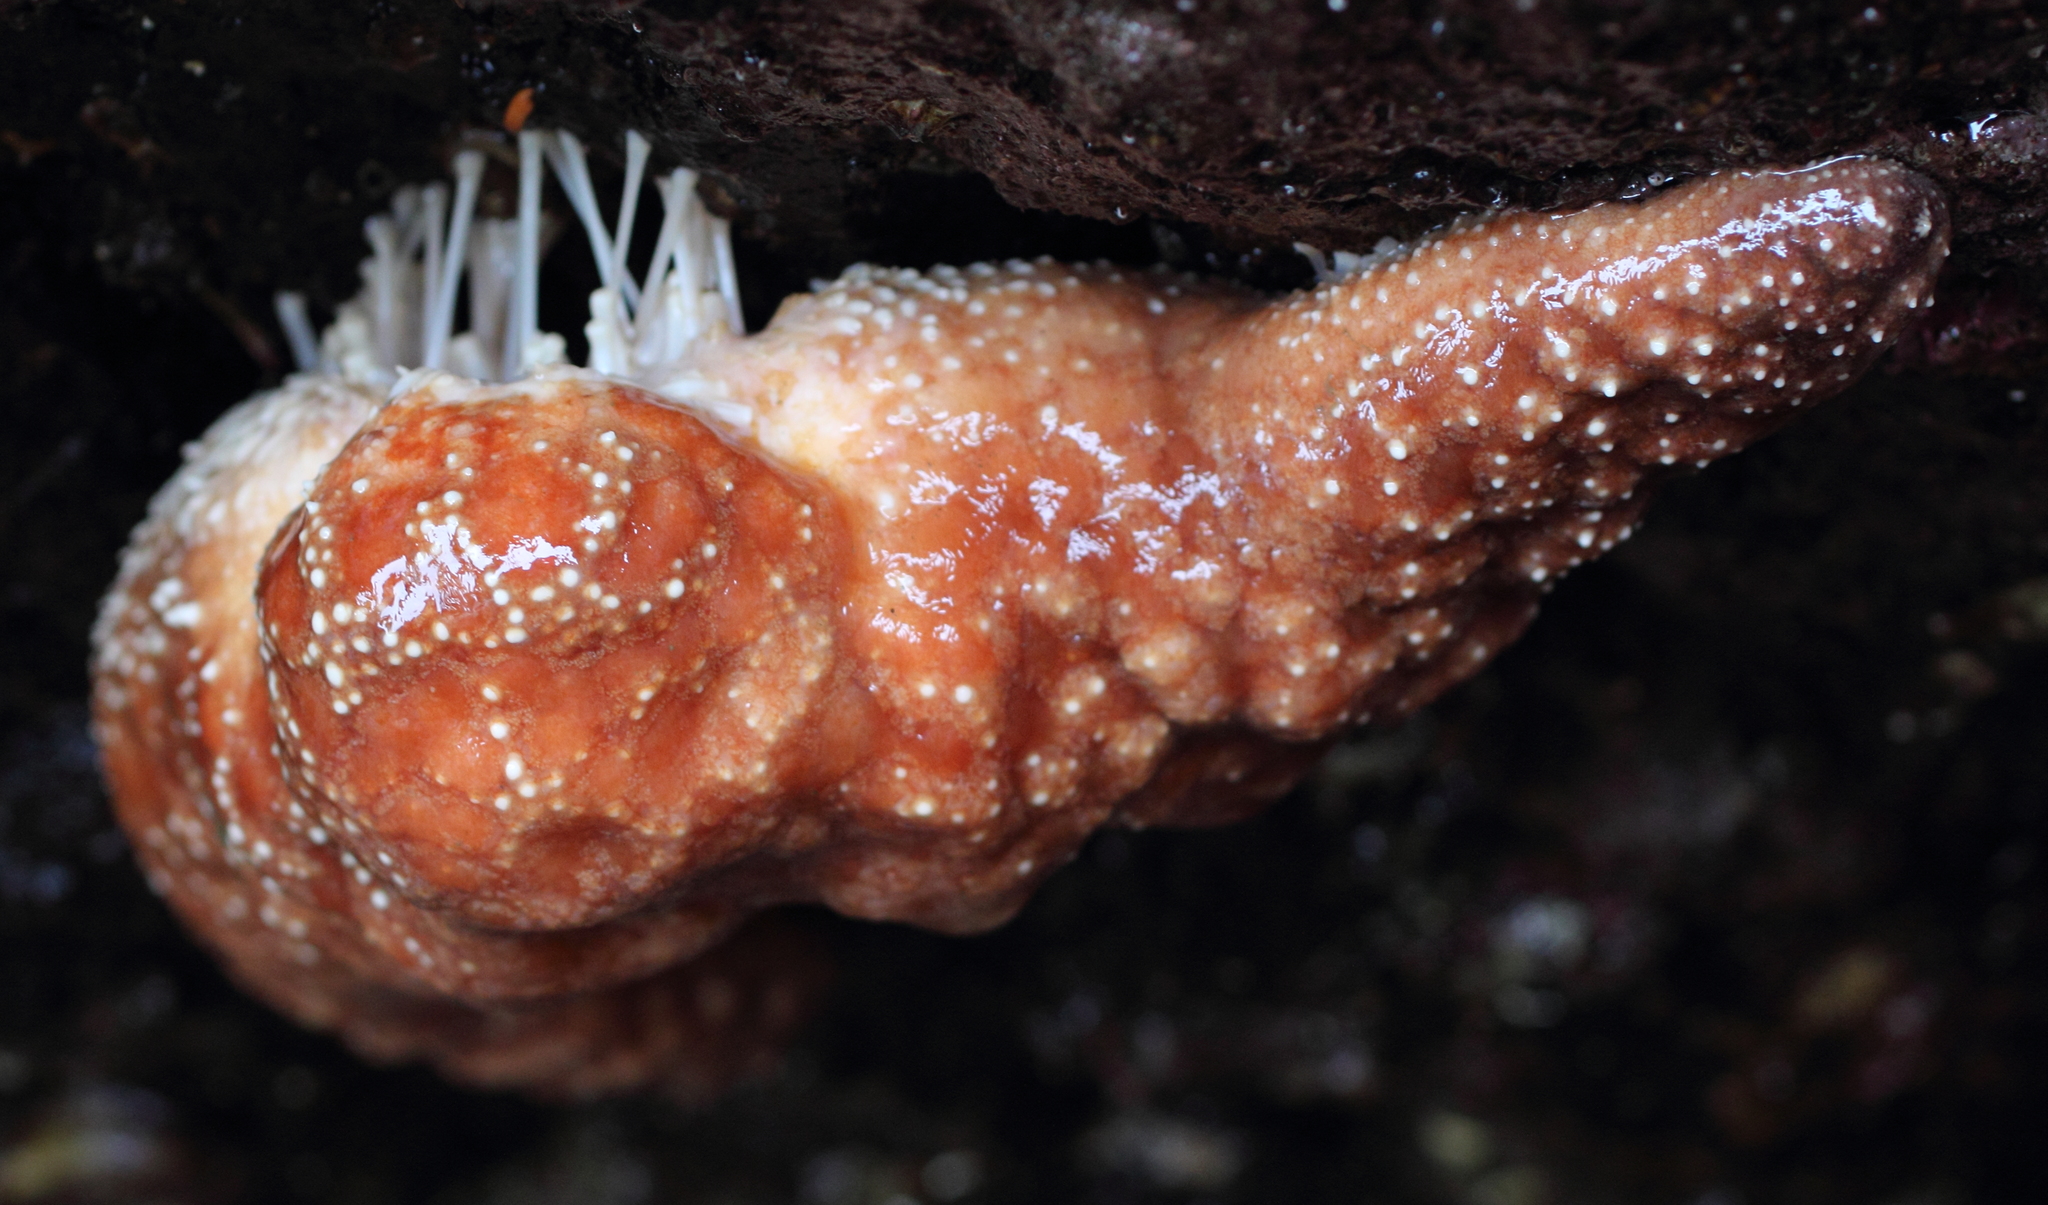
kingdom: Animalia
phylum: Echinodermata
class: Asteroidea
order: Forcipulatida
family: Asteriidae
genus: Pisaster
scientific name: Pisaster ochraceus
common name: Ochre stars
